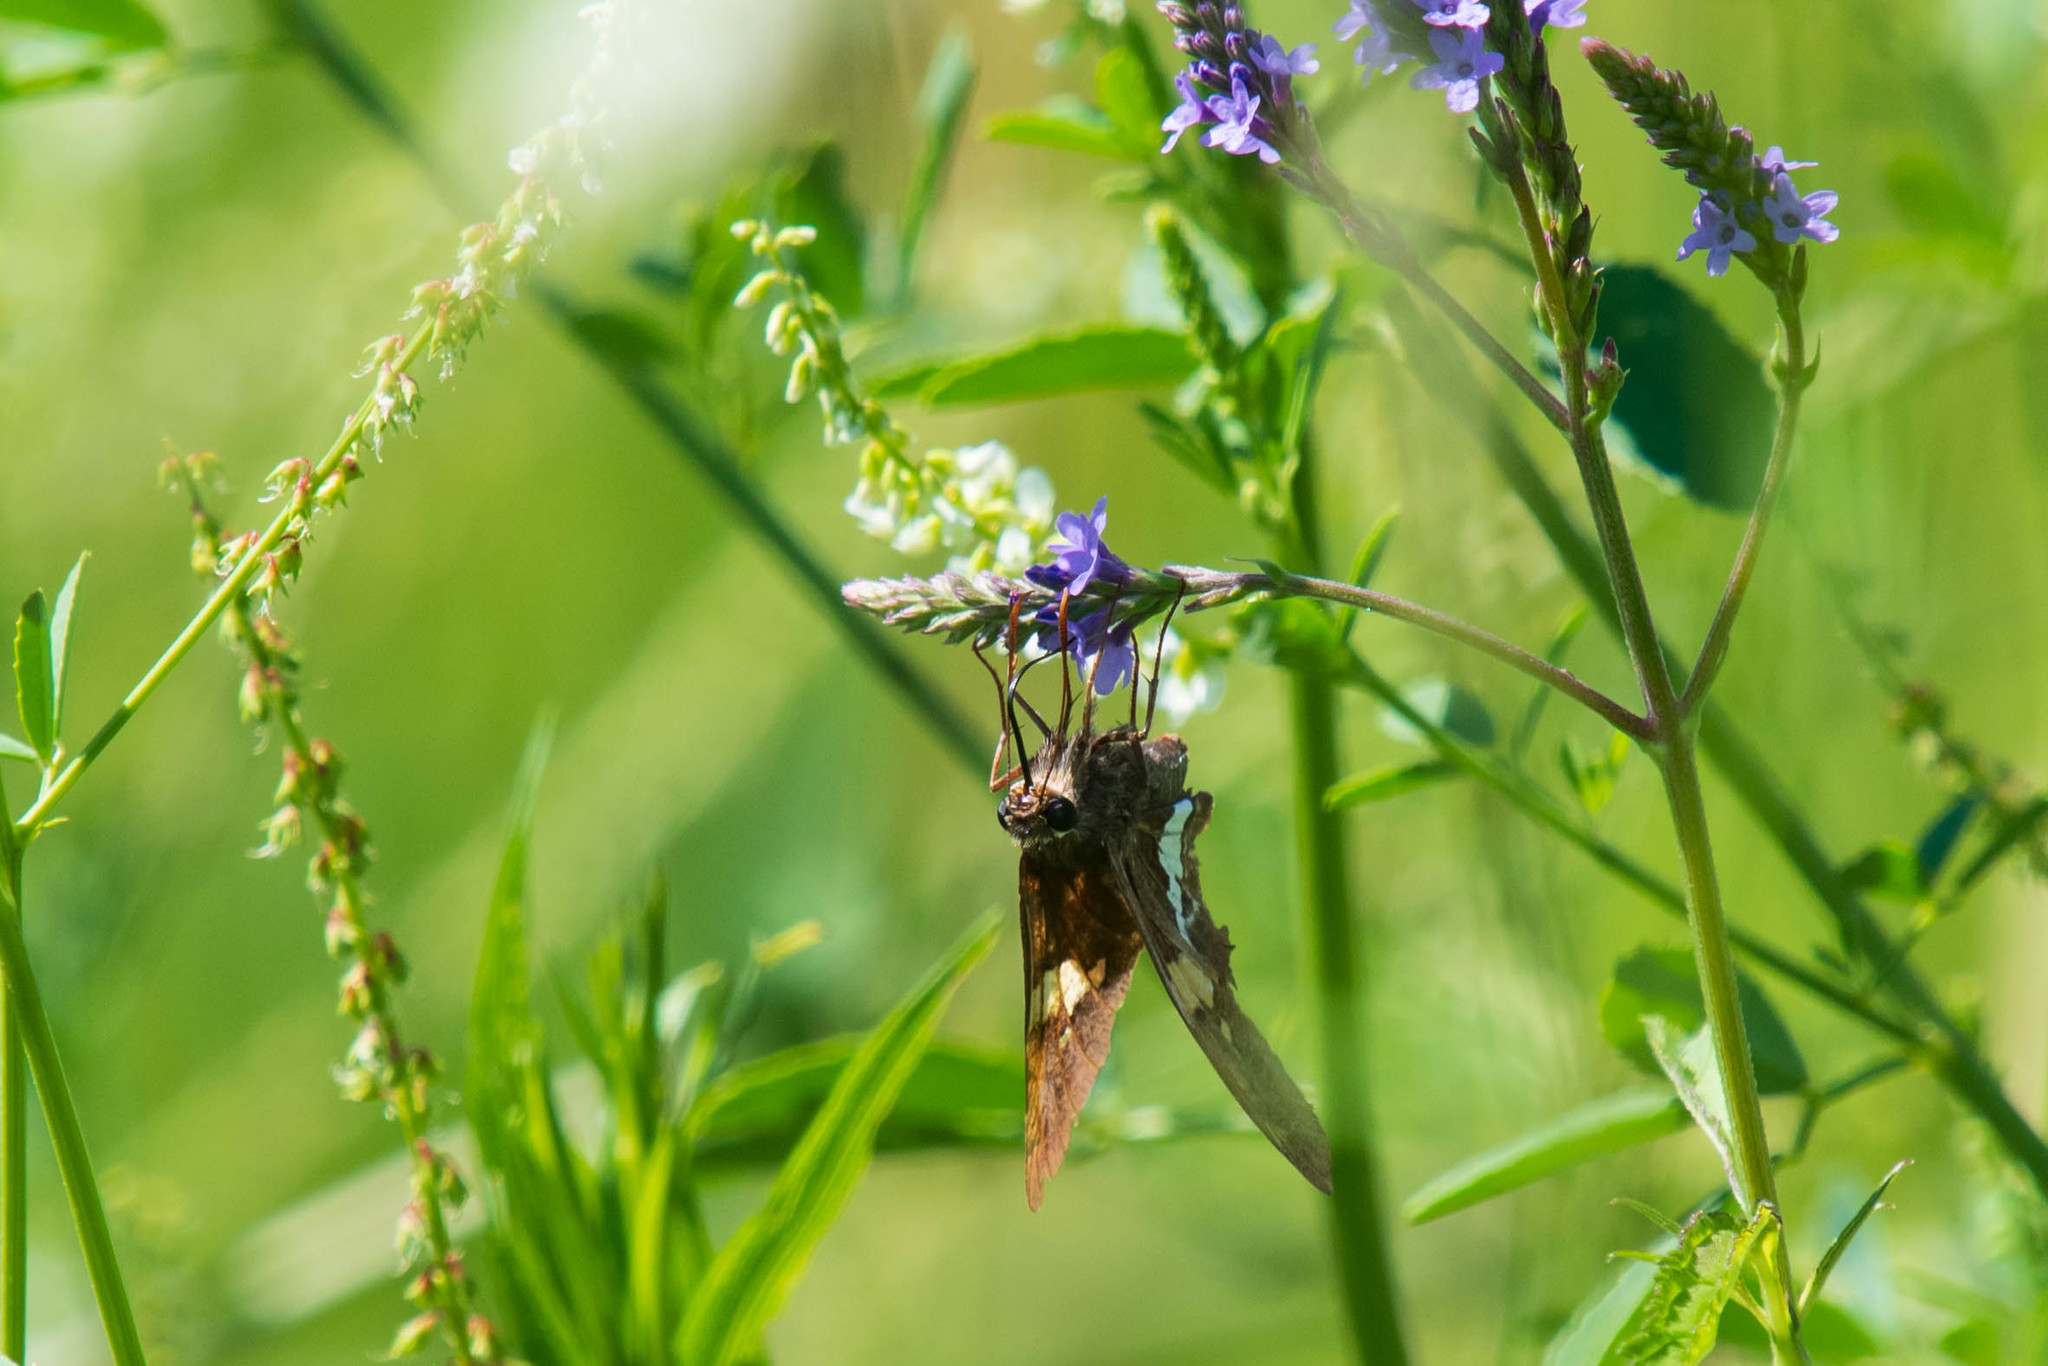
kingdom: Animalia
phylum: Arthropoda
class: Insecta
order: Lepidoptera
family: Hesperiidae
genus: Epargyreus
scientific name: Epargyreus clarus
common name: Silver-spotted skipper
